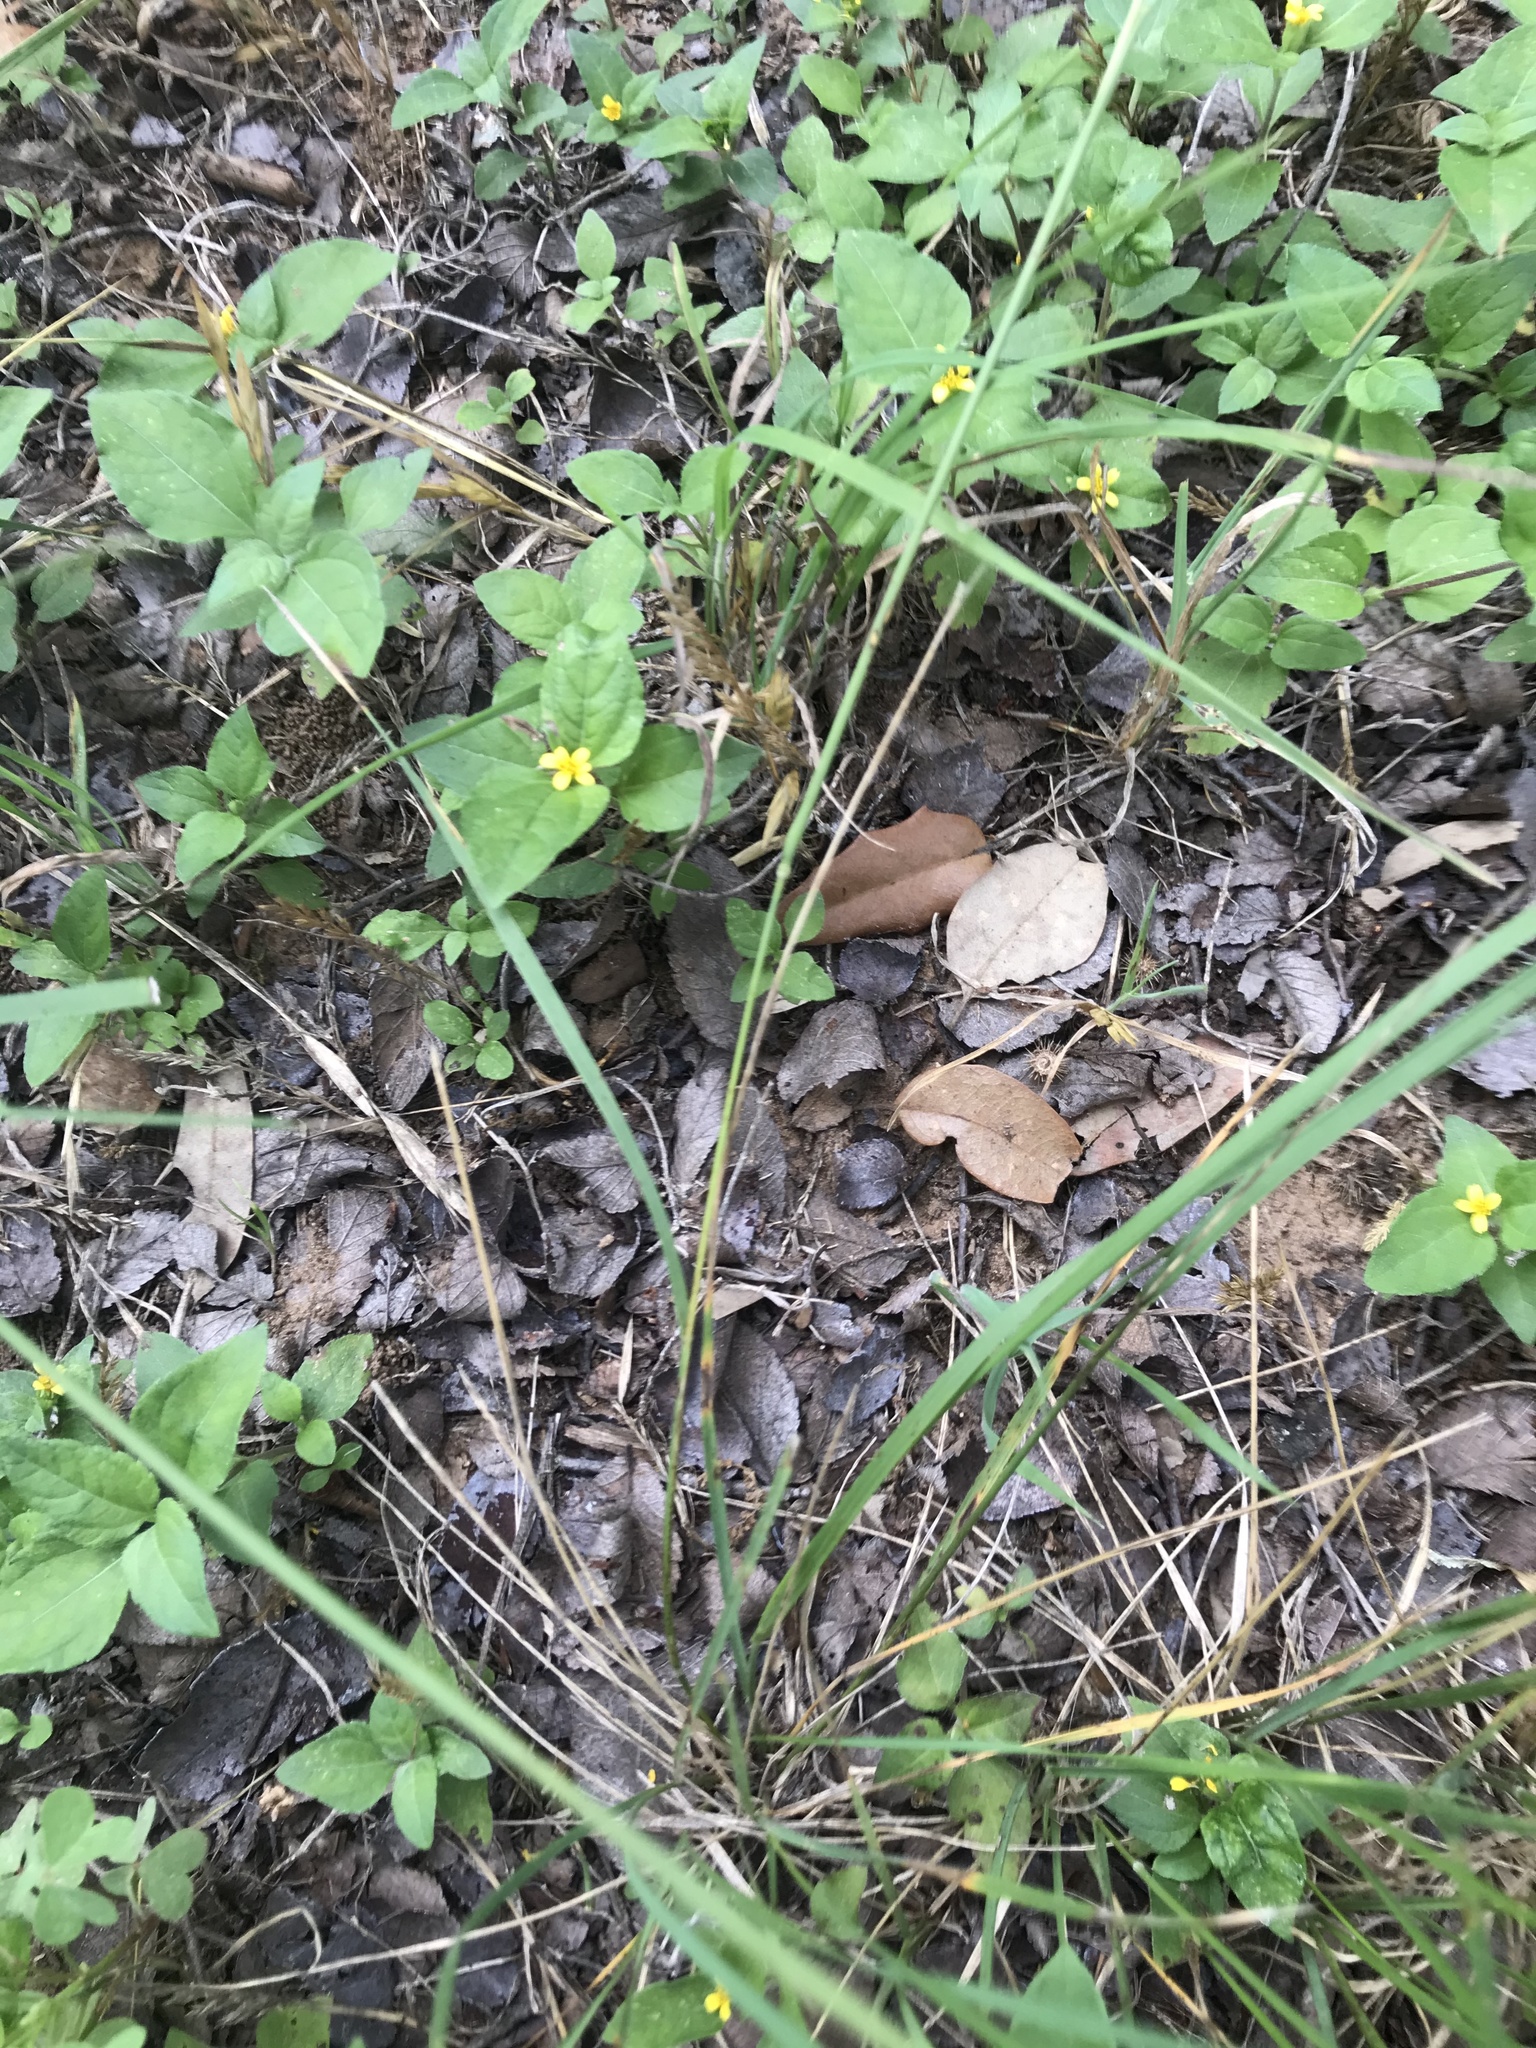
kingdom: Plantae
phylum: Tracheophyta
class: Liliopsida
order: Poales
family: Poaceae
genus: Nassella
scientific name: Nassella leucotricha
